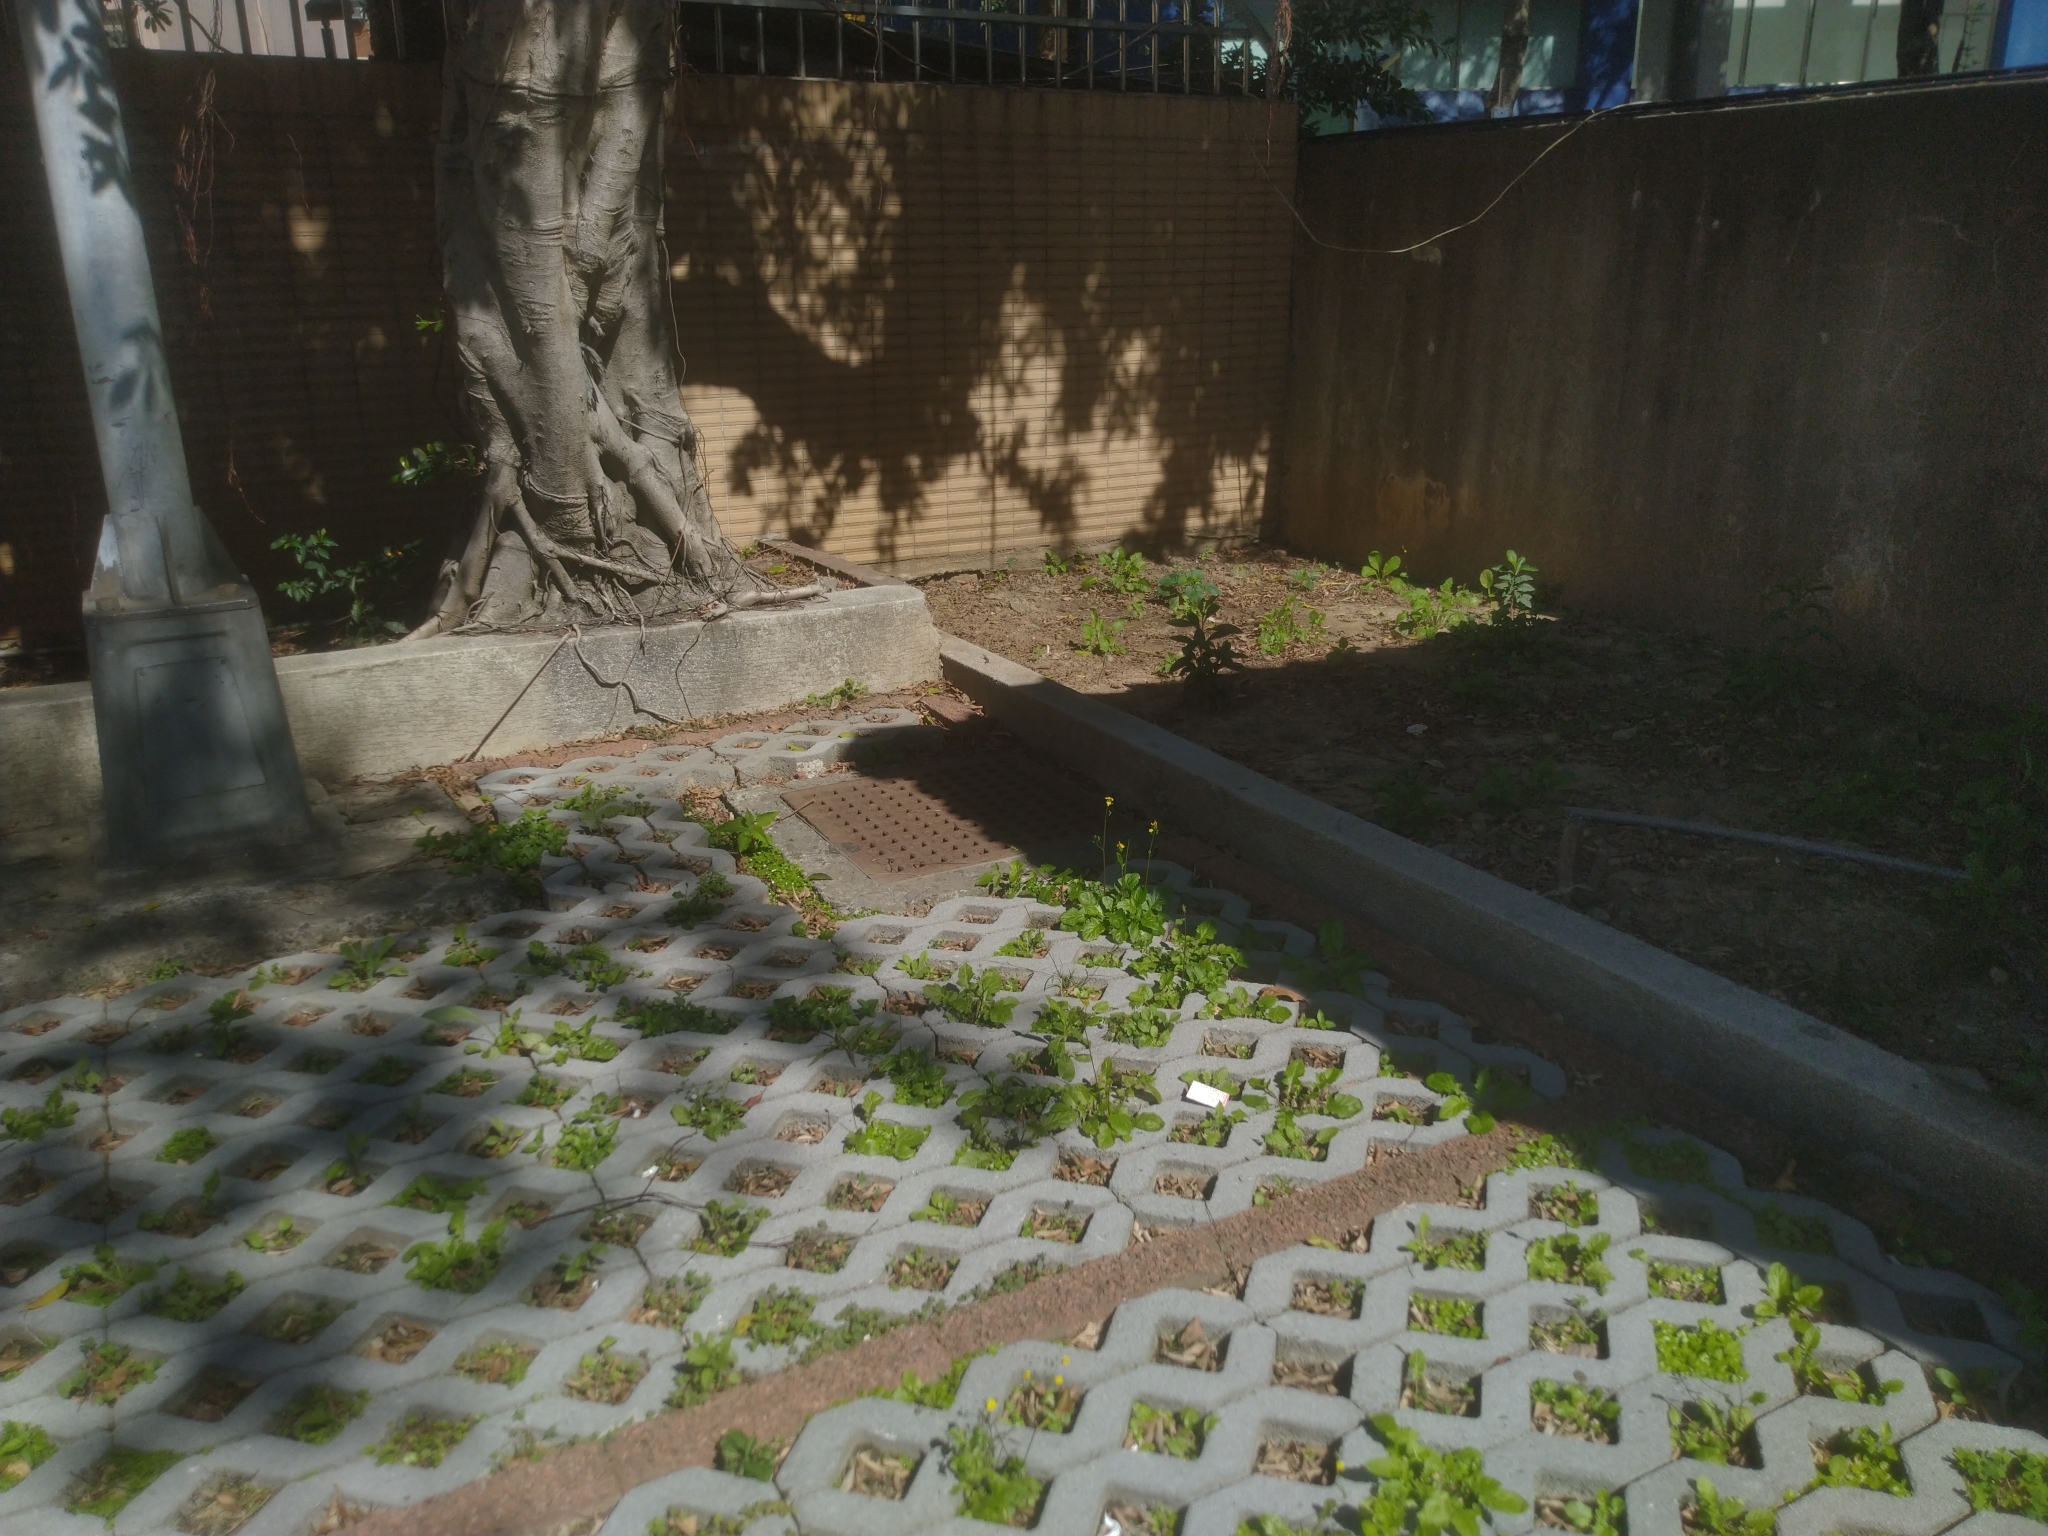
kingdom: Plantae
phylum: Tracheophyta
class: Magnoliopsida
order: Asterales
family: Asteraceae
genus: Youngia
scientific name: Youngia japonica
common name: Oriental false hawksbeard
